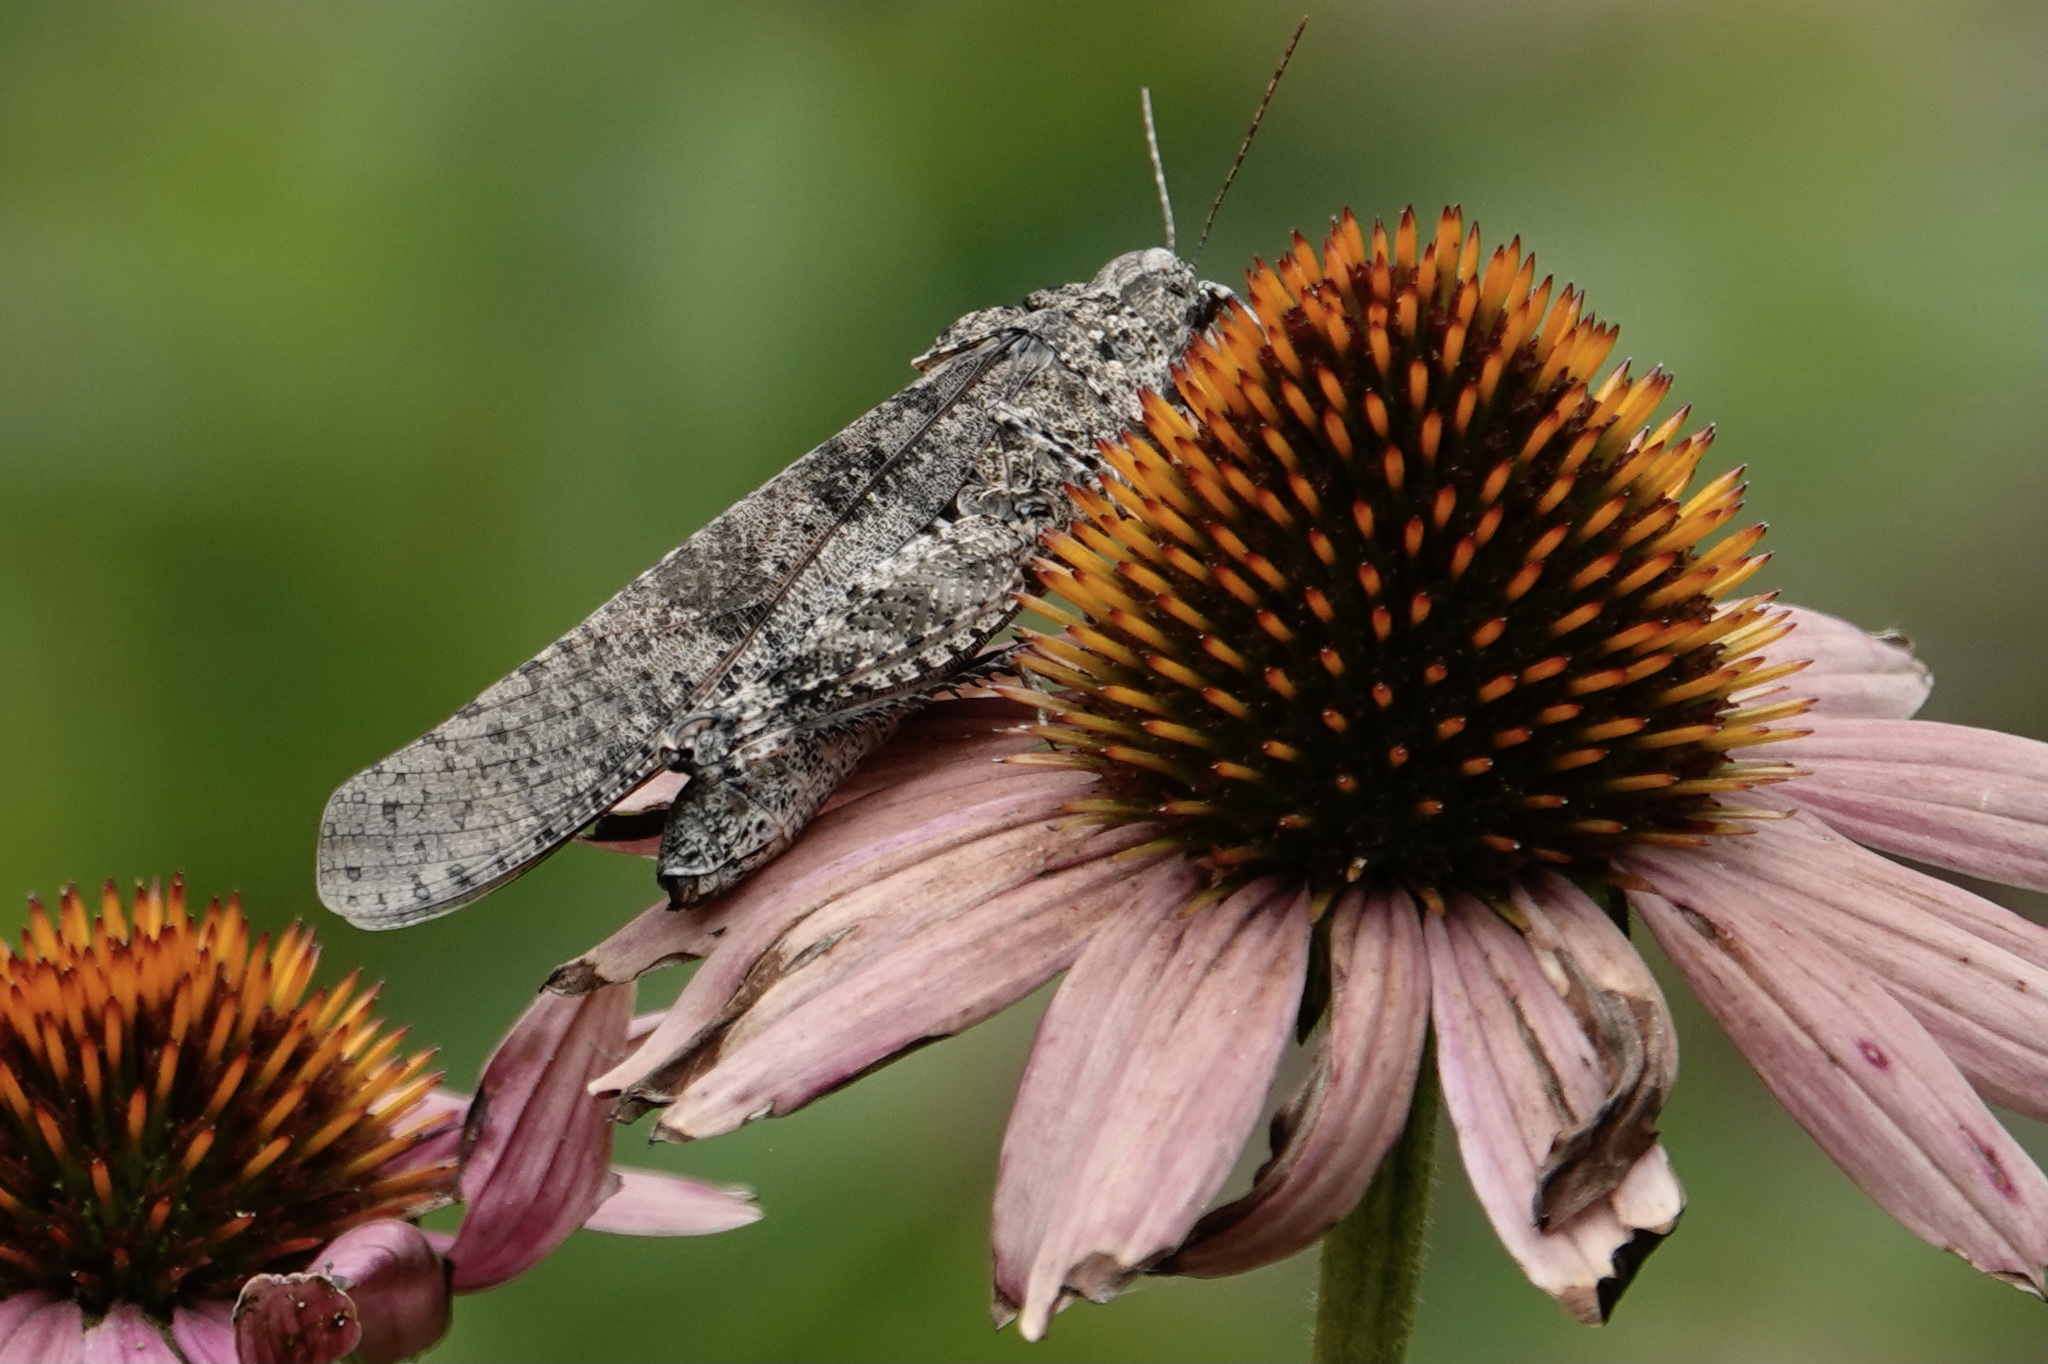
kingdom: Animalia
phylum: Arthropoda
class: Insecta
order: Orthoptera
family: Acrididae
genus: Dissosteira
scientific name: Dissosteira carolina
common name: Carolina grasshopper
